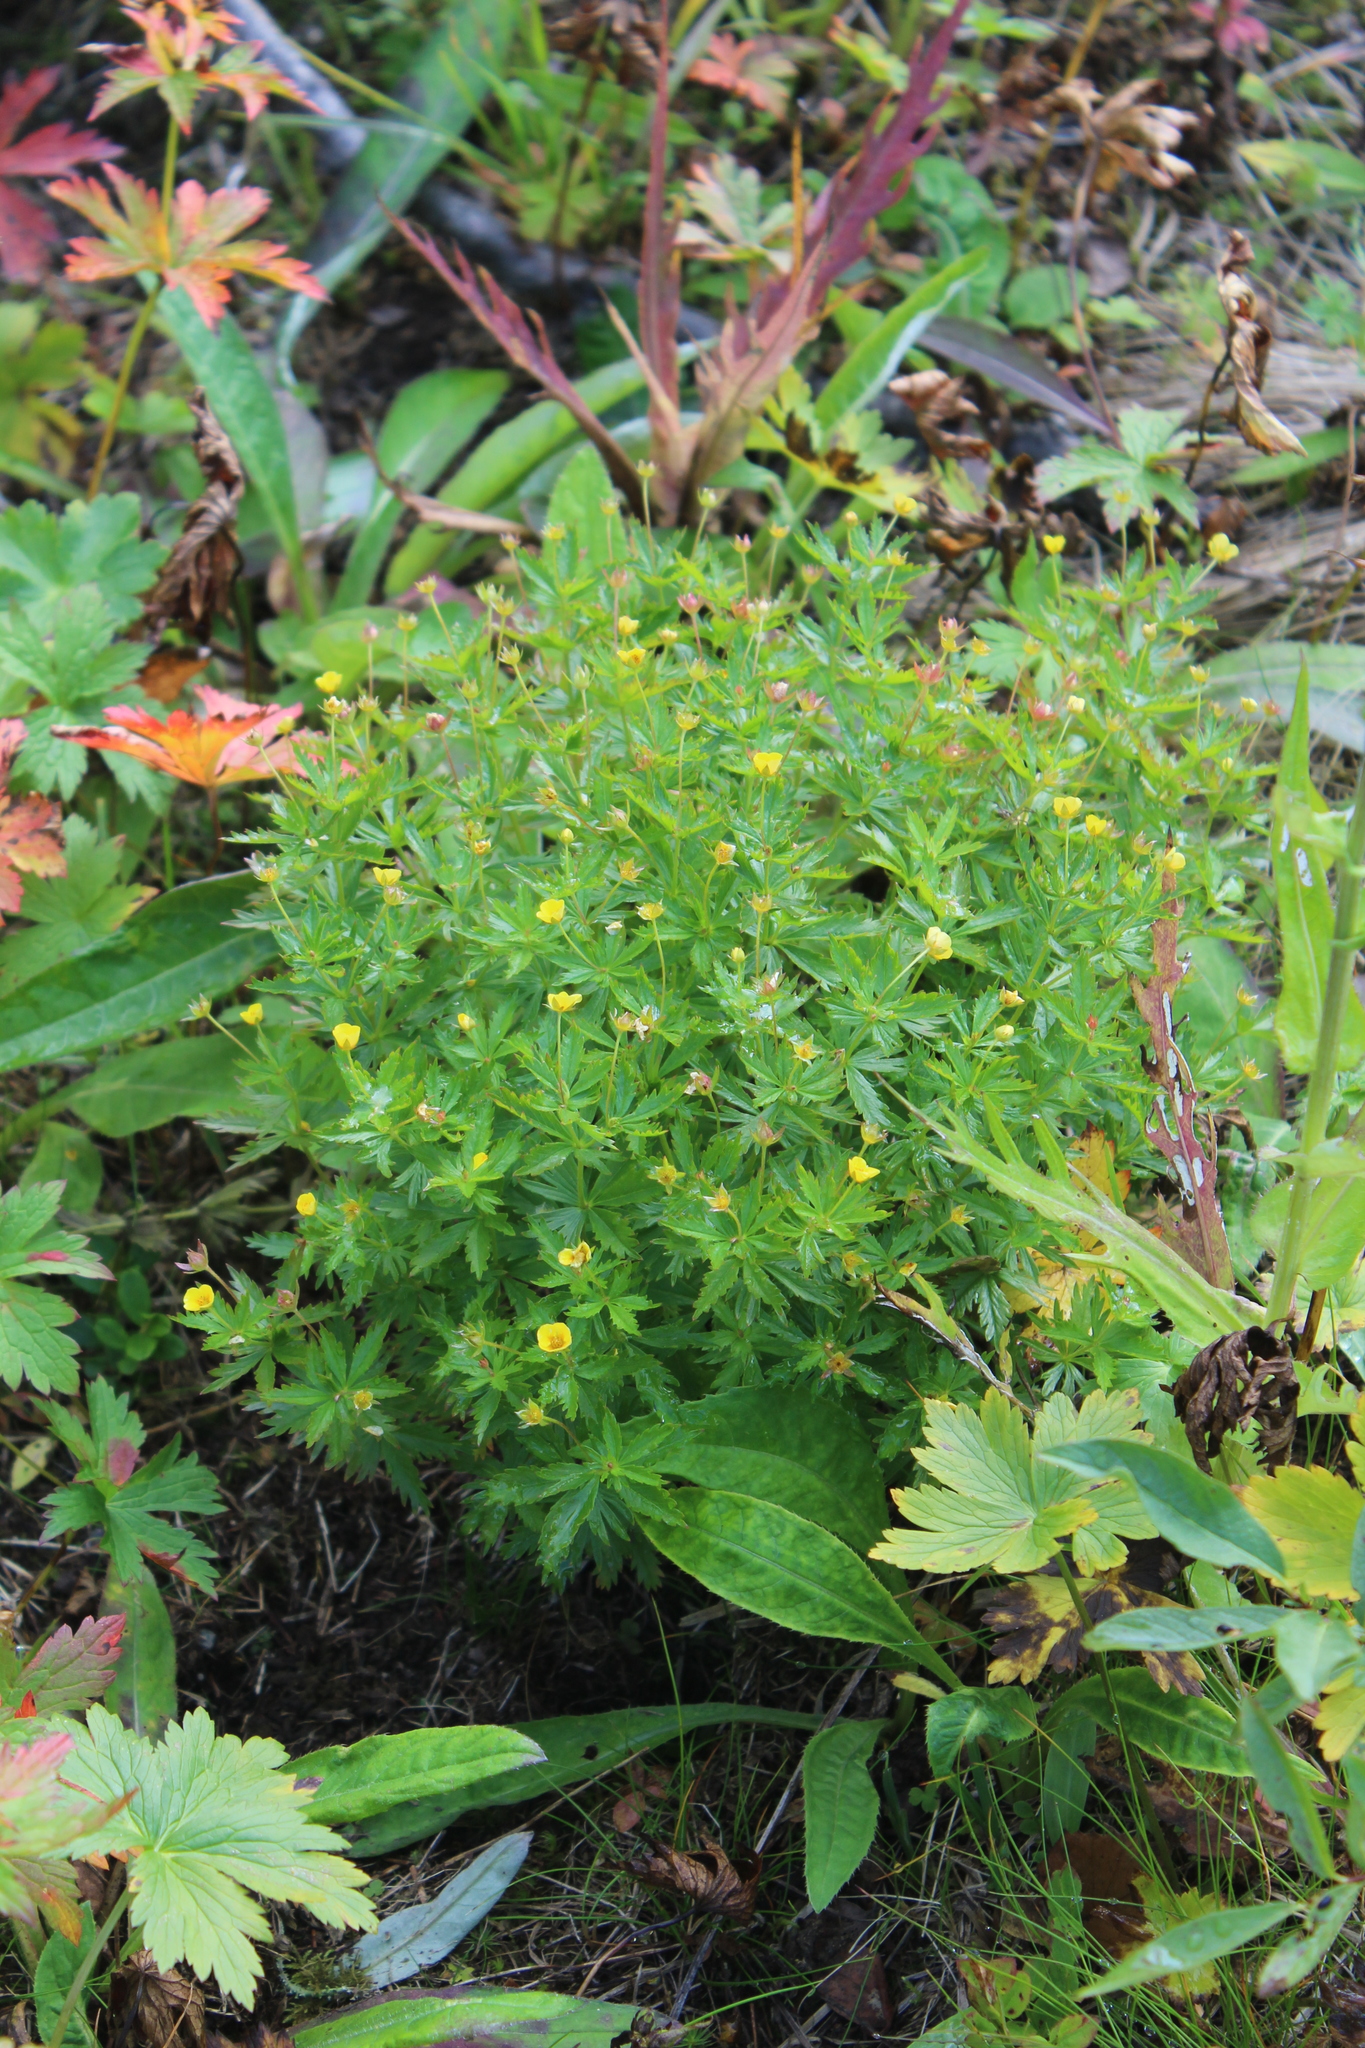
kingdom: Plantae
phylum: Tracheophyta
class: Magnoliopsida
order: Rosales
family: Rosaceae
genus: Potentilla
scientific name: Potentilla erecta
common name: Tormentil
